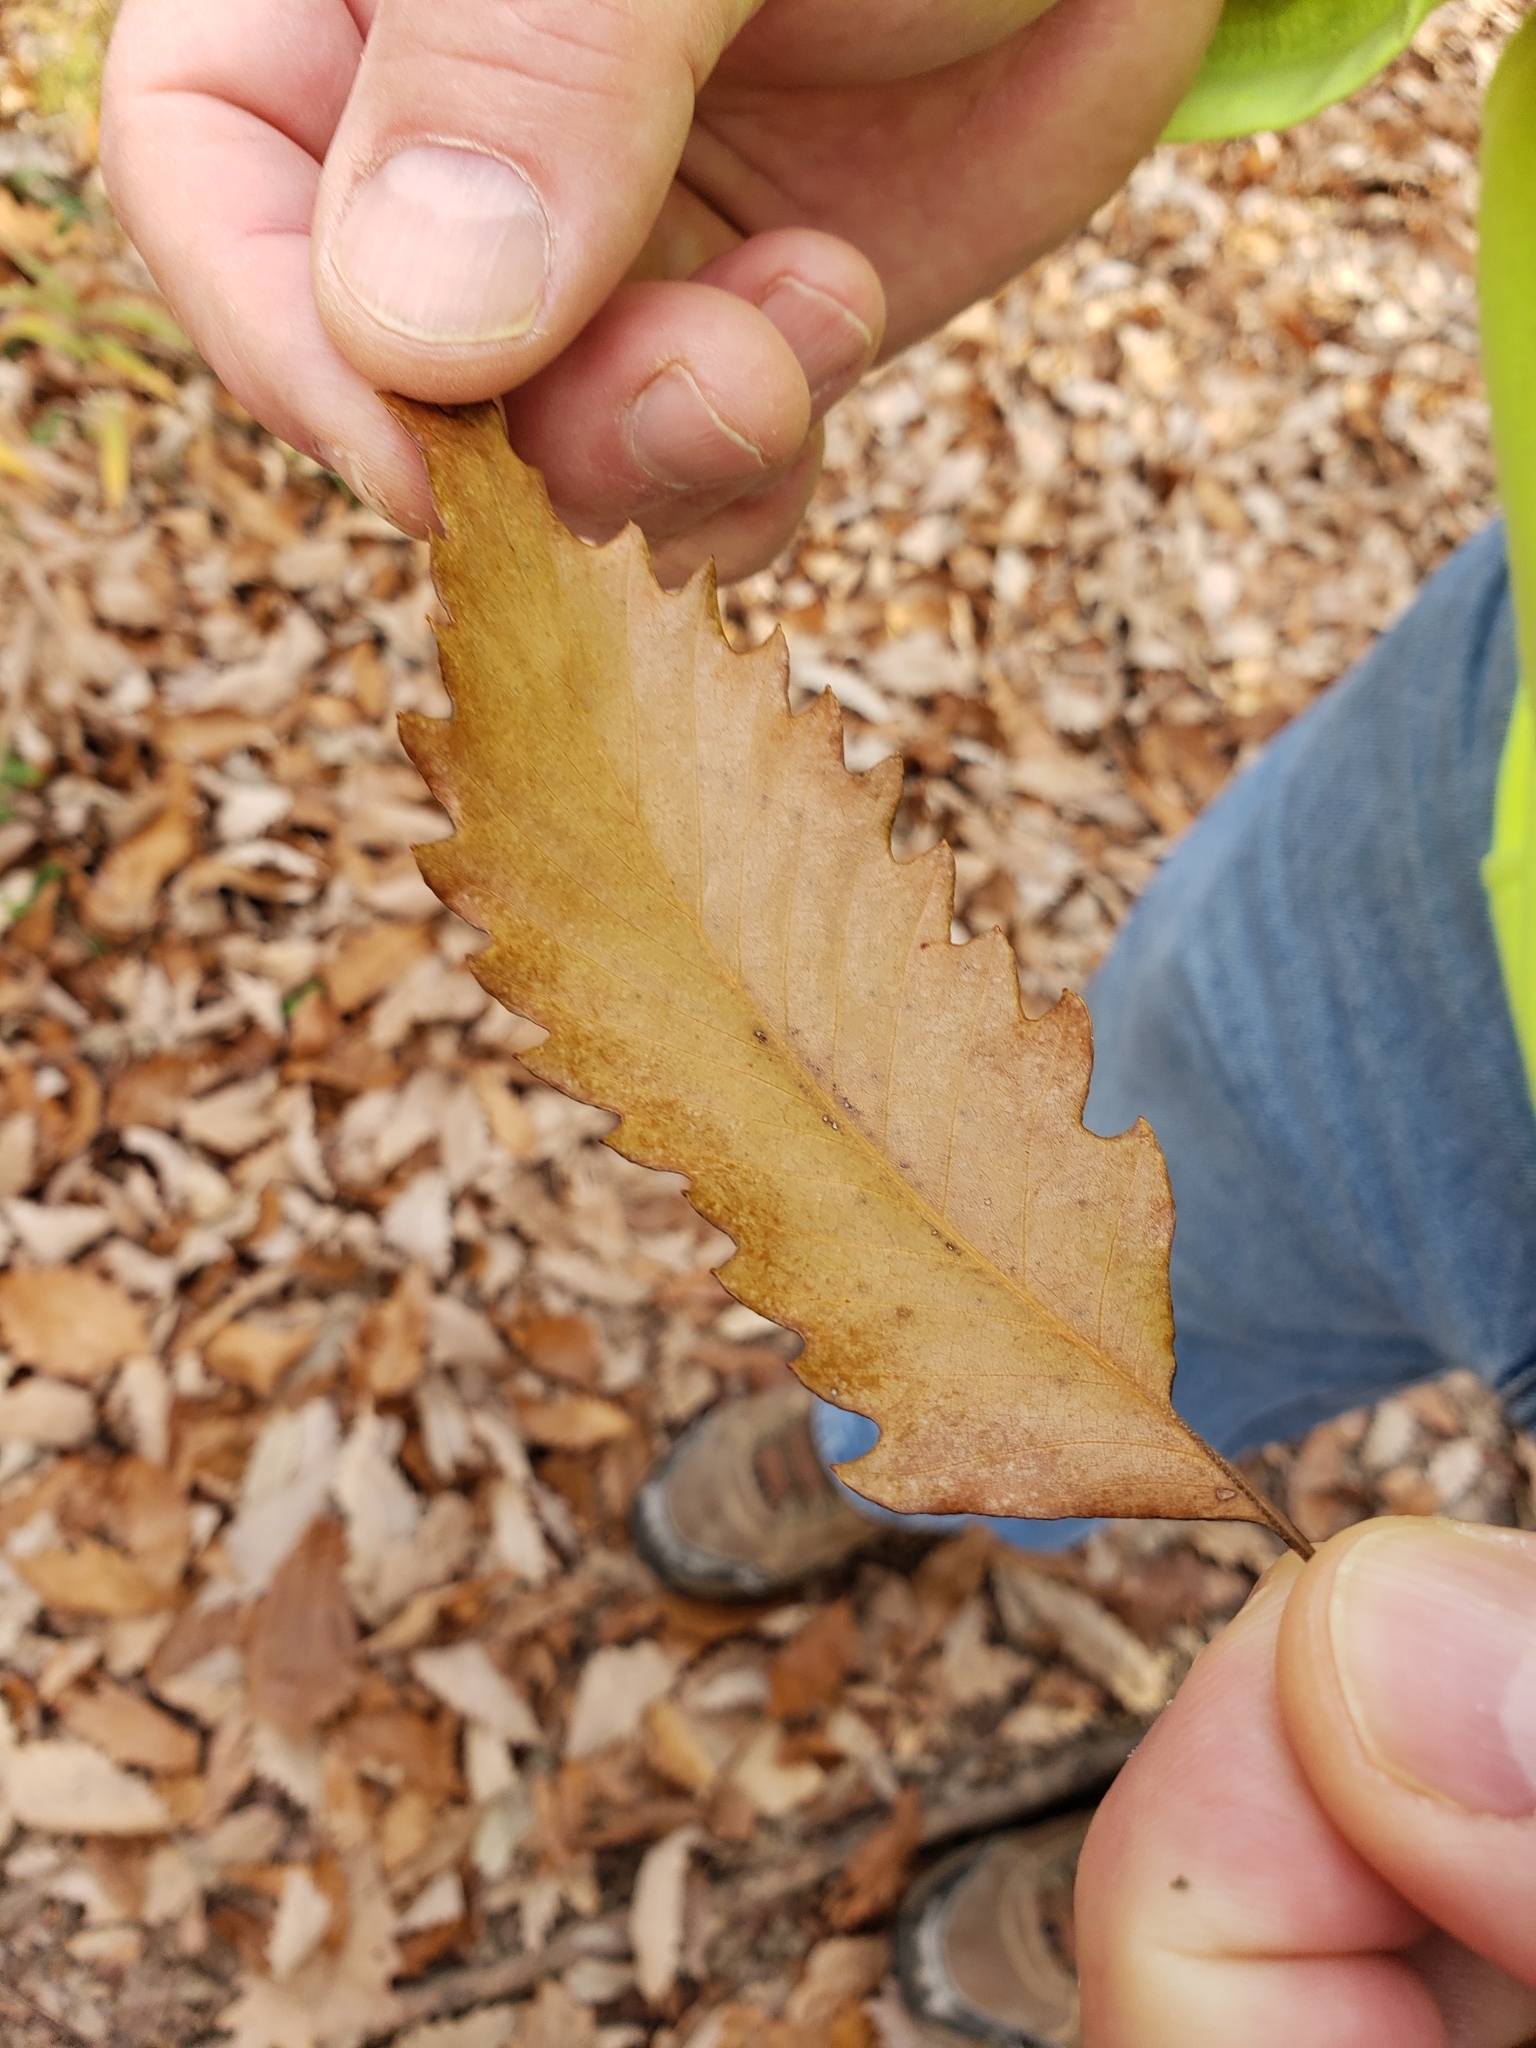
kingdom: Plantae
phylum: Tracheophyta
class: Magnoliopsida
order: Fagales
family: Fagaceae
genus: Quercus
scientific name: Quercus muehlenbergii
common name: Chinkapin oak
